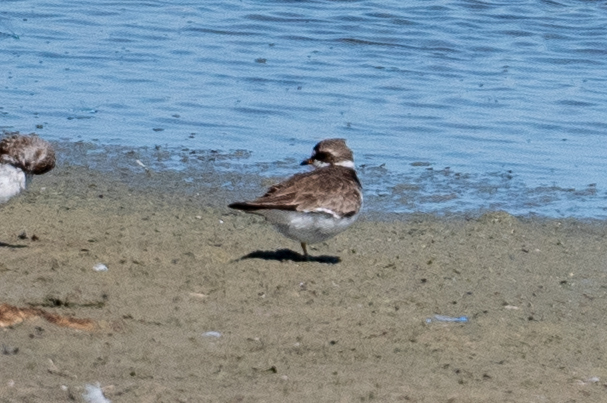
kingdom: Animalia
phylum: Chordata
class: Aves
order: Charadriiformes
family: Charadriidae
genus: Charadrius
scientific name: Charadrius semipalmatus
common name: Semipalmated plover
